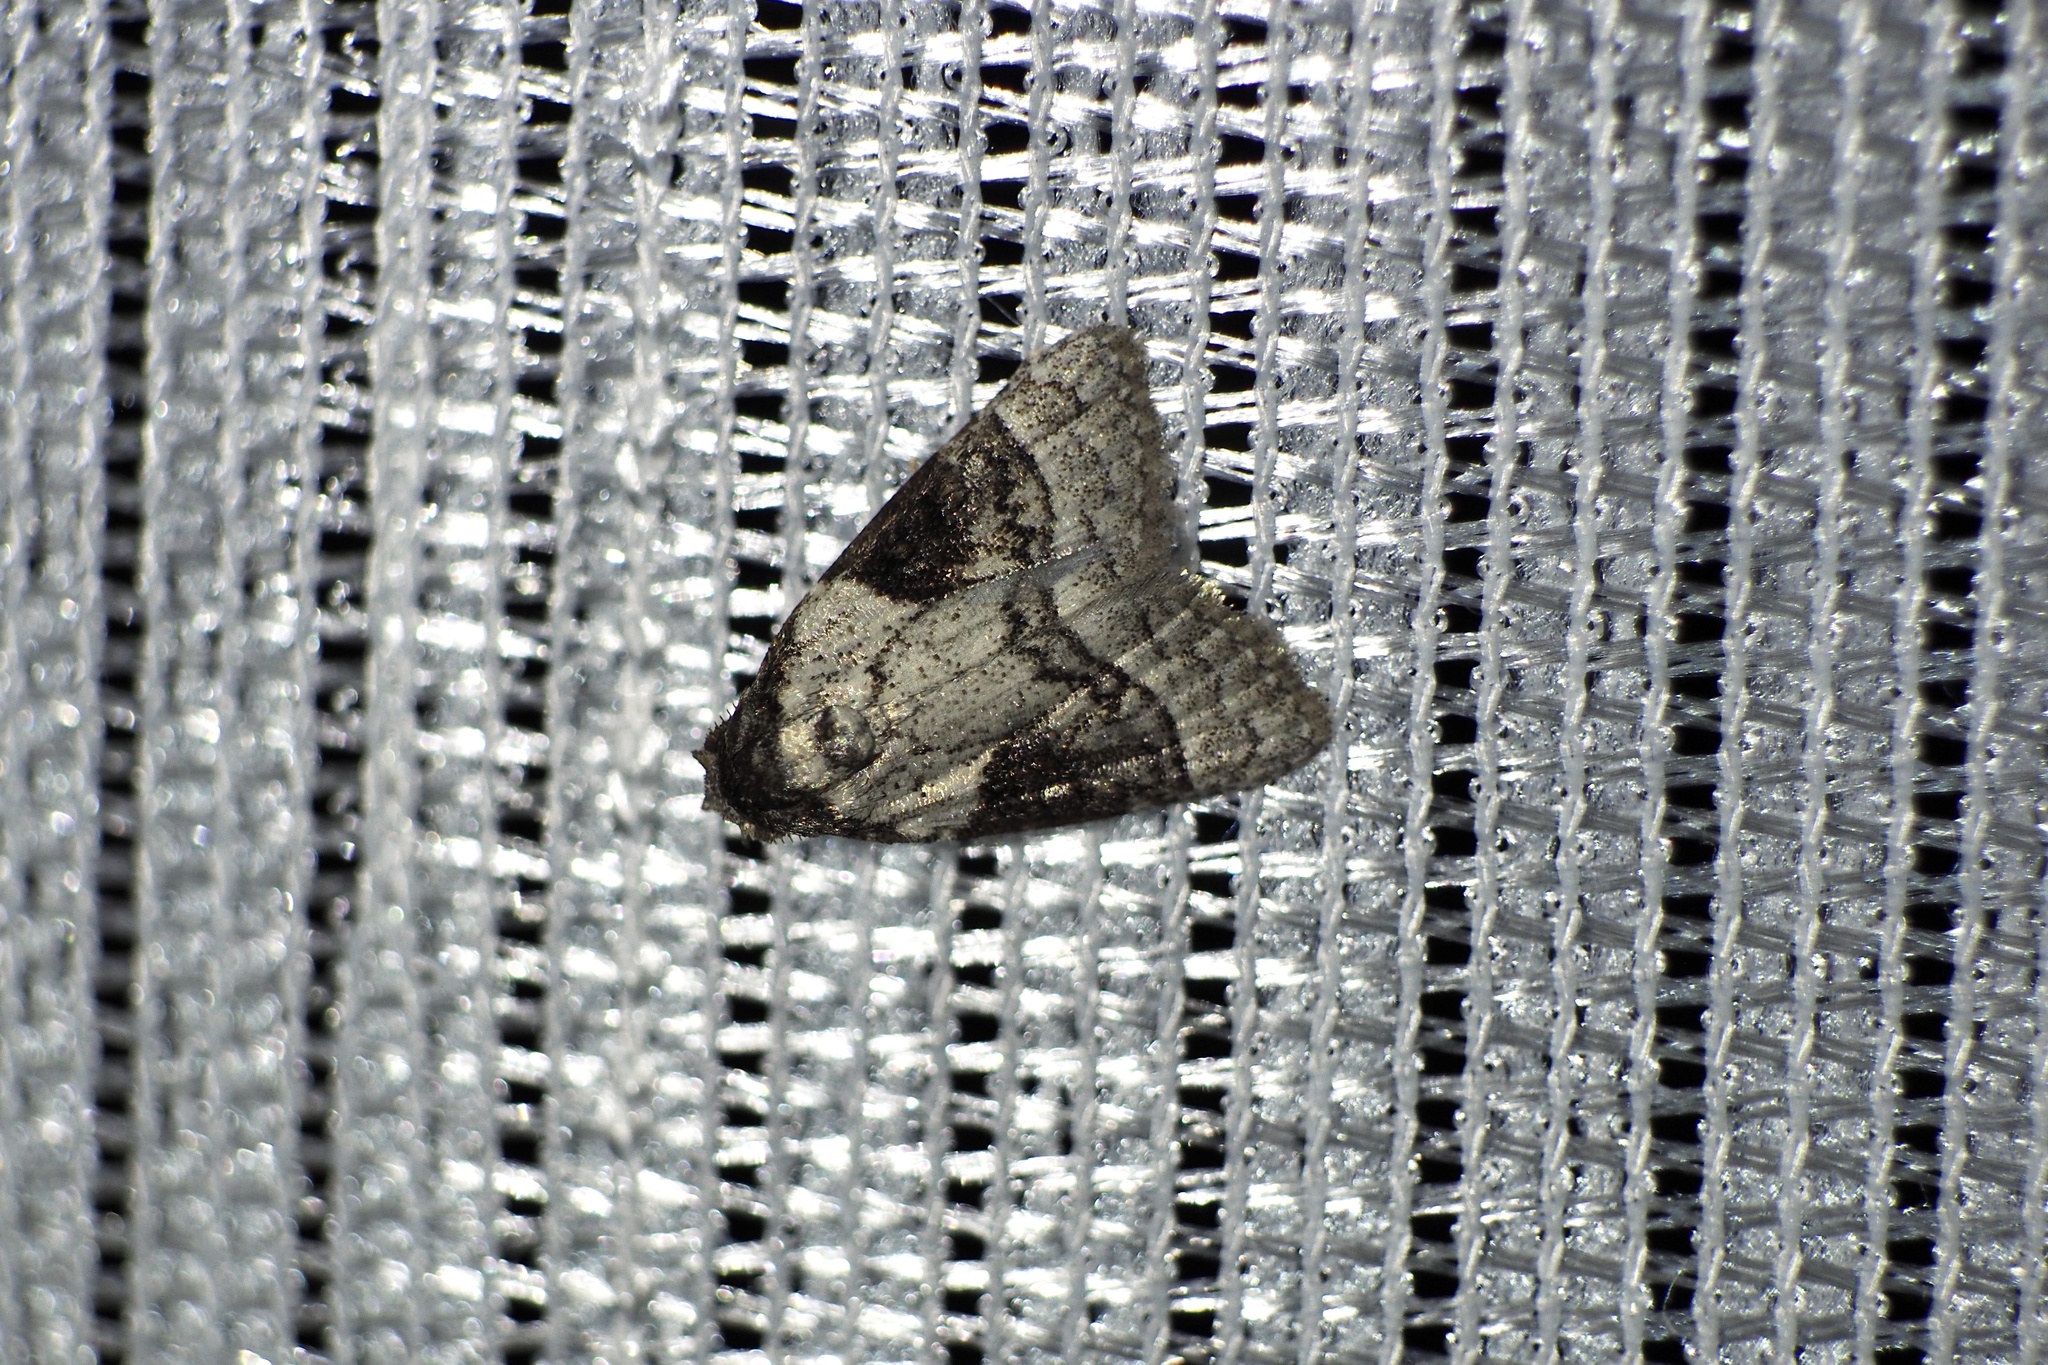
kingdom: Animalia
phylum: Arthropoda
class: Insecta
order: Lepidoptera
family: Nolidae
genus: Meganola
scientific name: Meganola triangulalis
